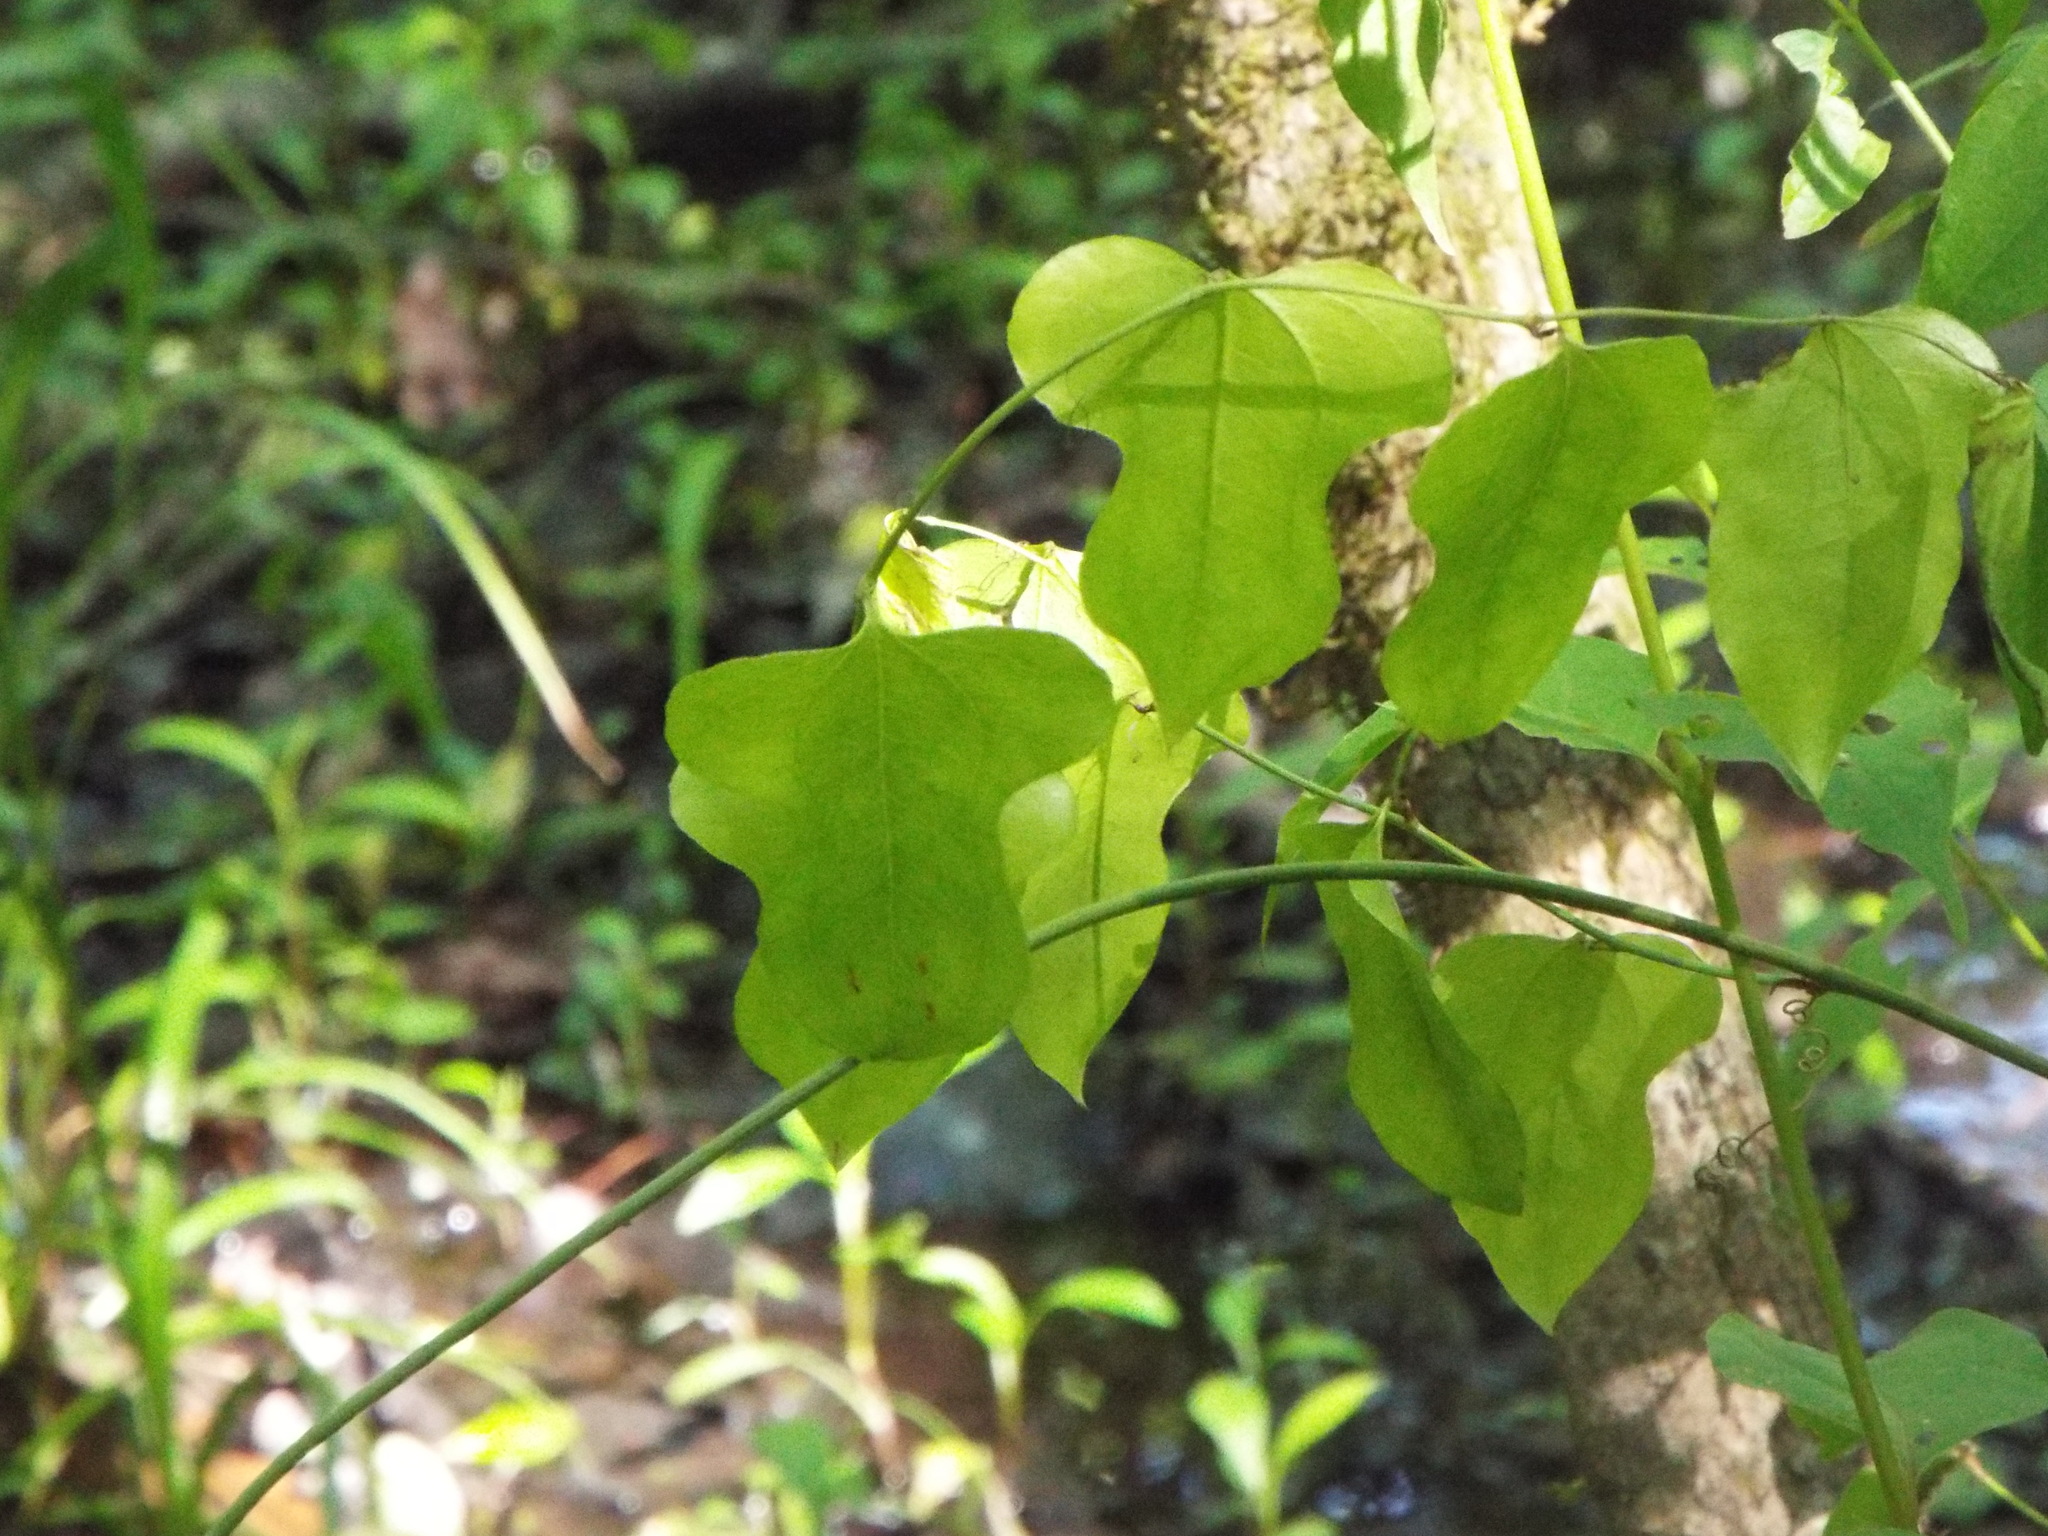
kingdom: Plantae
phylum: Tracheophyta
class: Liliopsida
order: Liliales
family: Smilacaceae
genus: Smilax
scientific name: Smilax tamnoides
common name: Hellfetter
